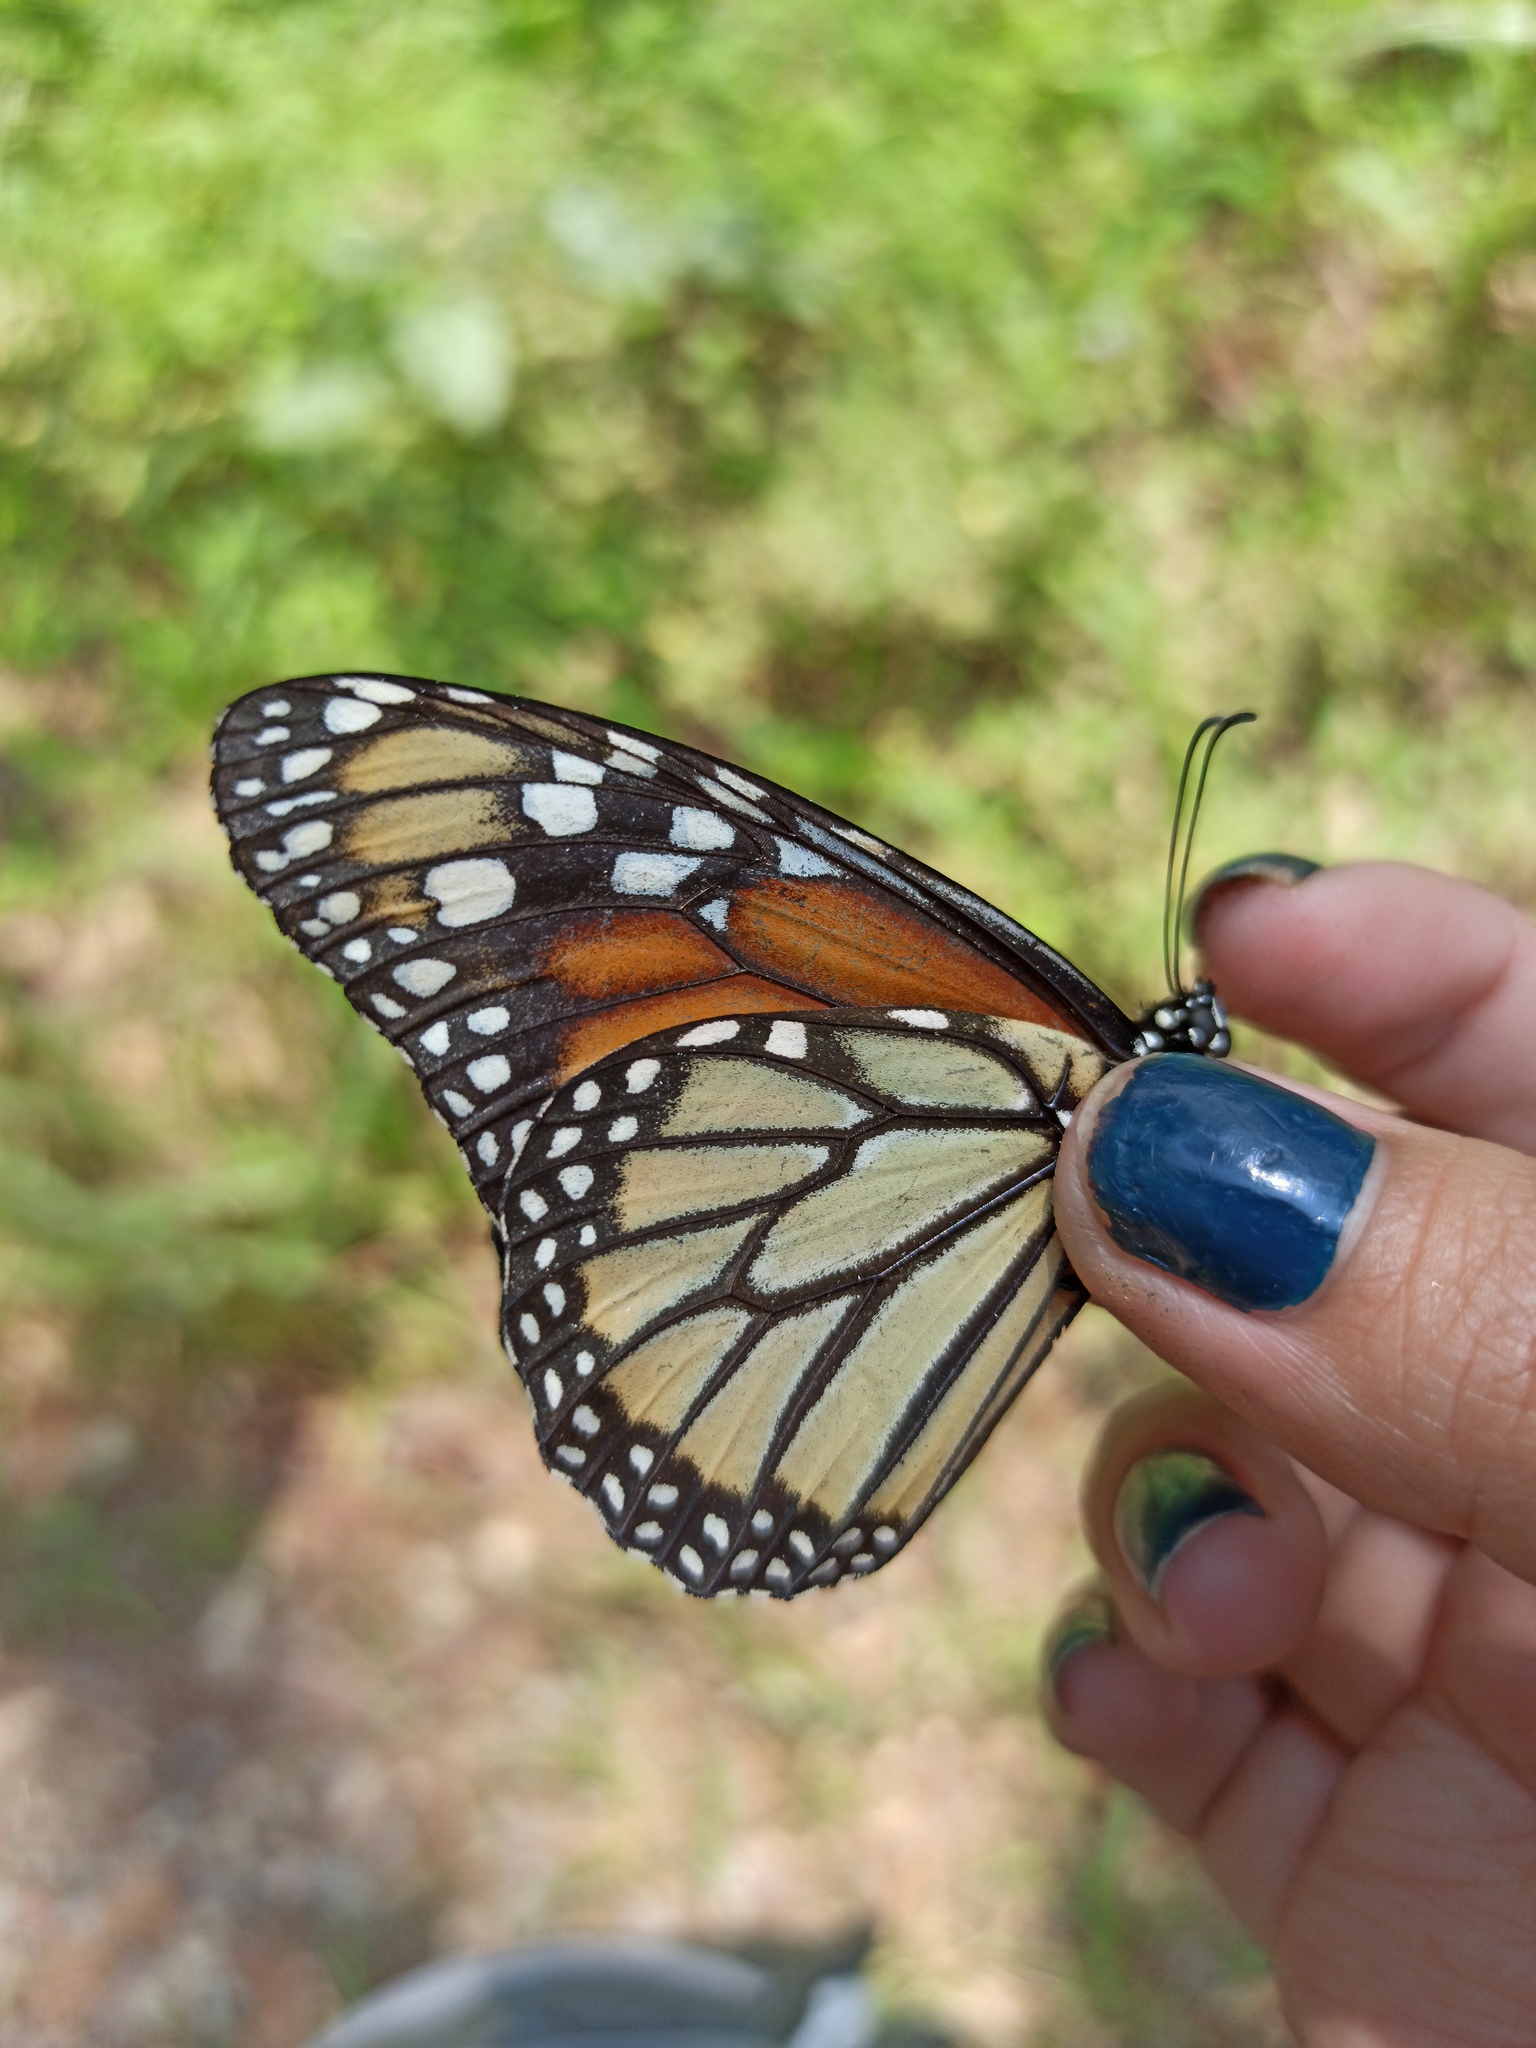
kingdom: Animalia
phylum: Arthropoda
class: Insecta
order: Lepidoptera
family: Nymphalidae
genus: Danaus
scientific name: Danaus plexippus
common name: Monarch
